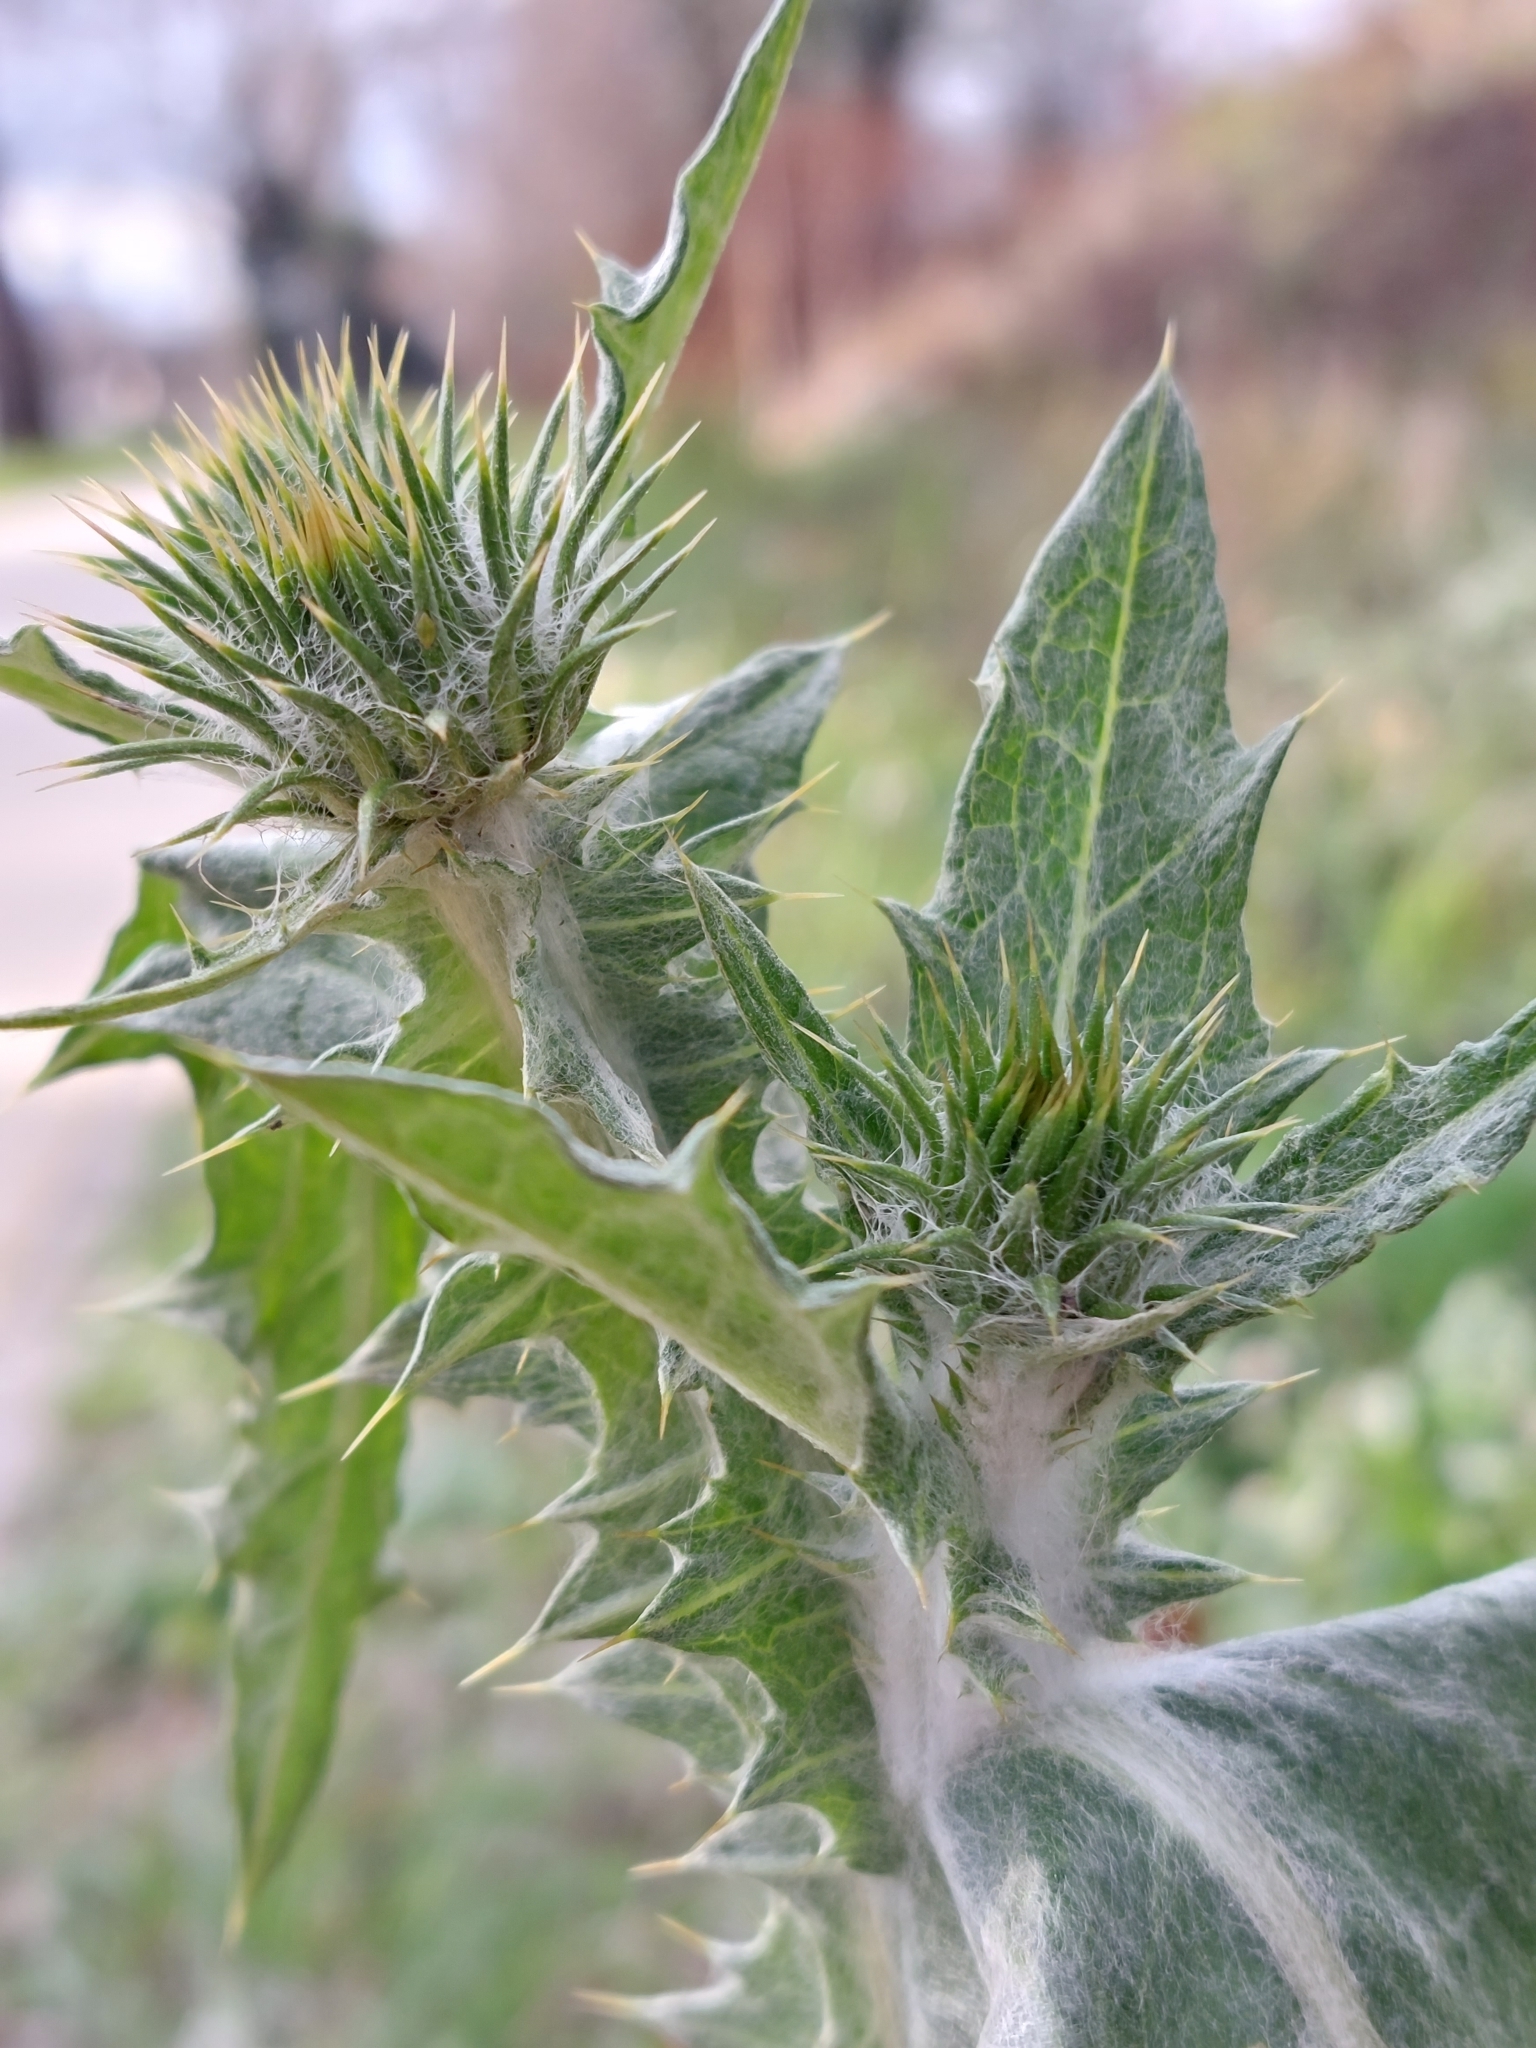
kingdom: Plantae
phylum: Tracheophyta
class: Magnoliopsida
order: Asterales
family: Asteraceae
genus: Onopordum
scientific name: Onopordum acanthium
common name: Scotch thistle
